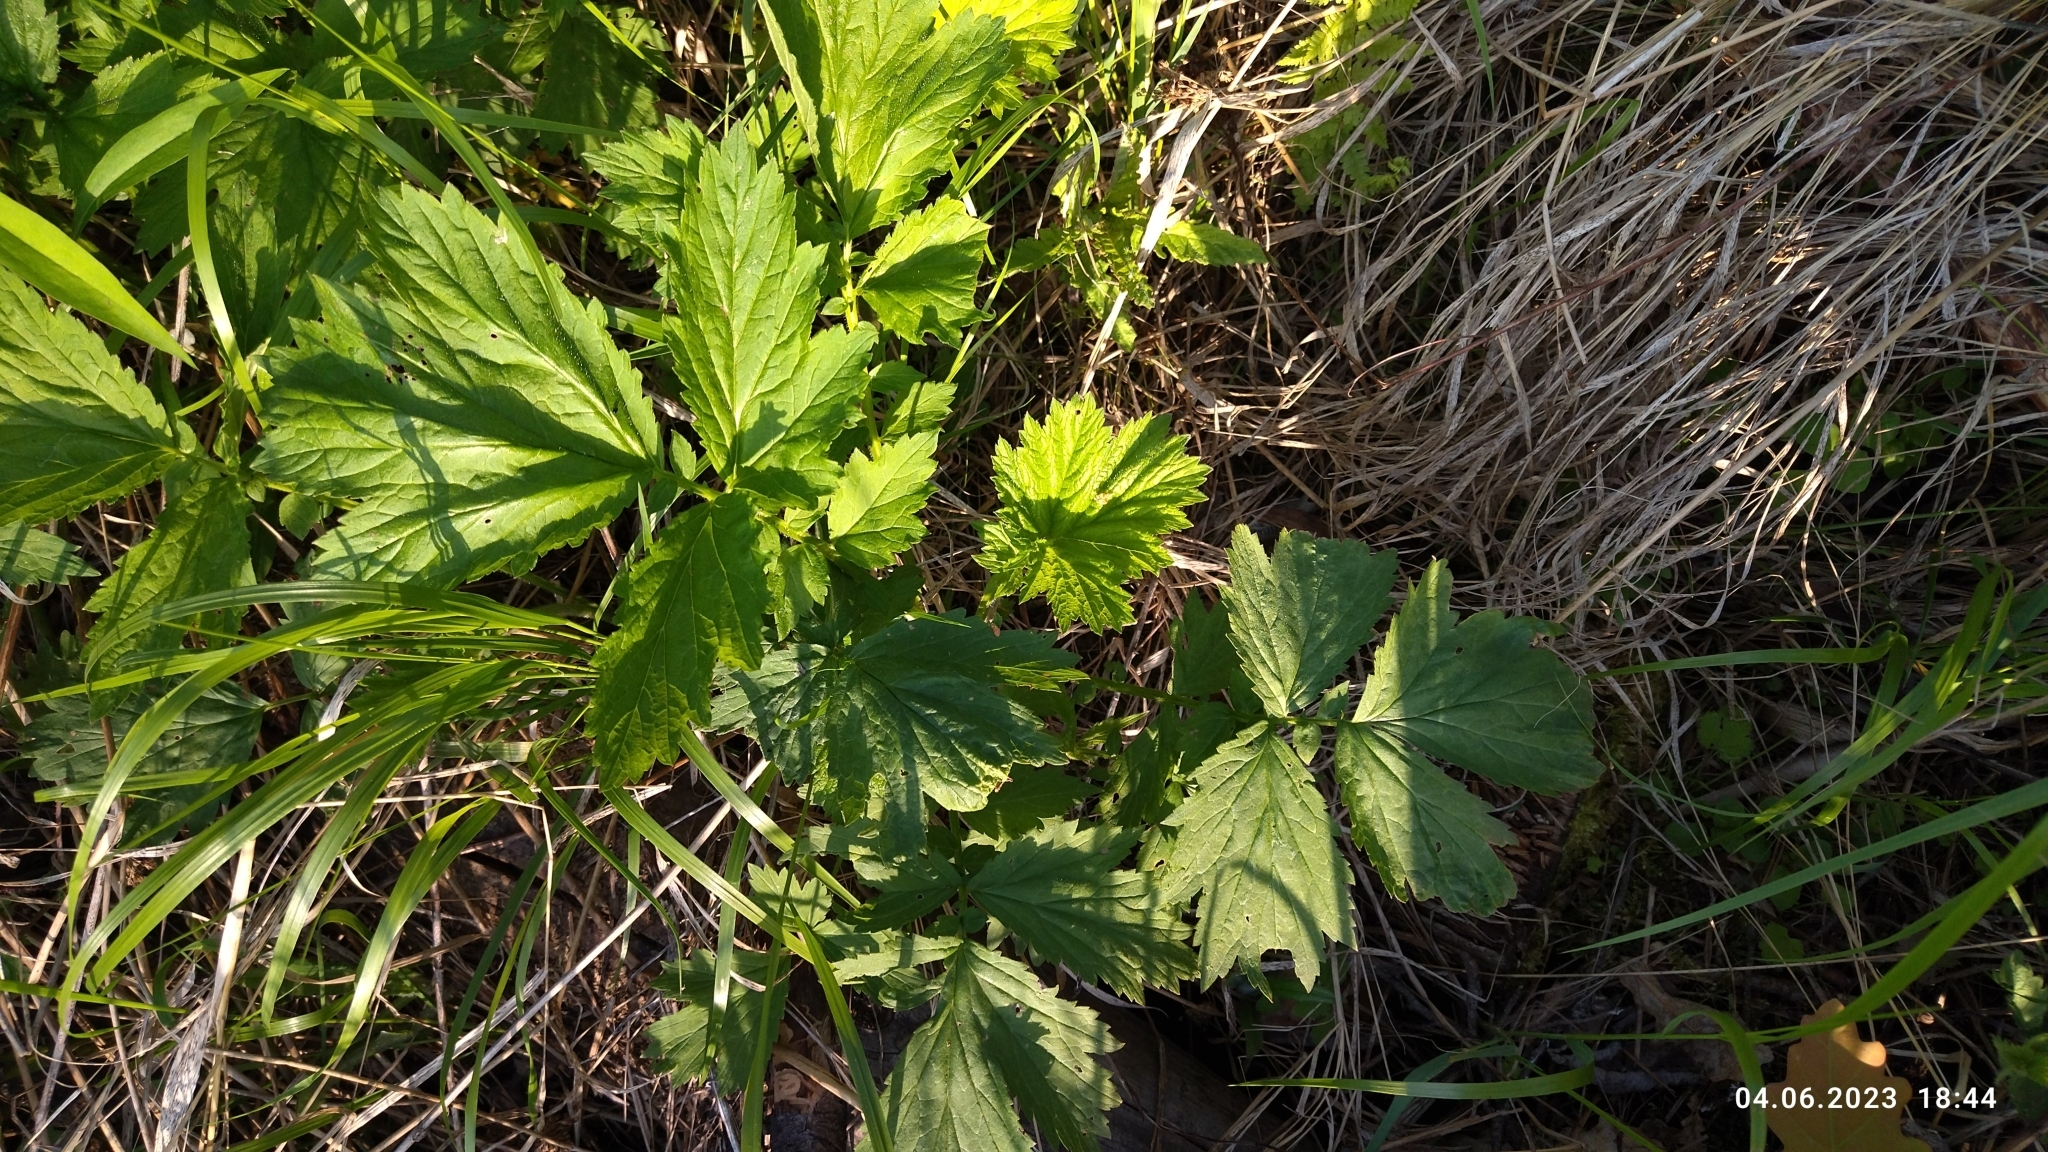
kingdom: Plantae
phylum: Tracheophyta
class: Magnoliopsida
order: Rosales
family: Rosaceae
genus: Geum
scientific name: Geum rivale
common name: Water avens
